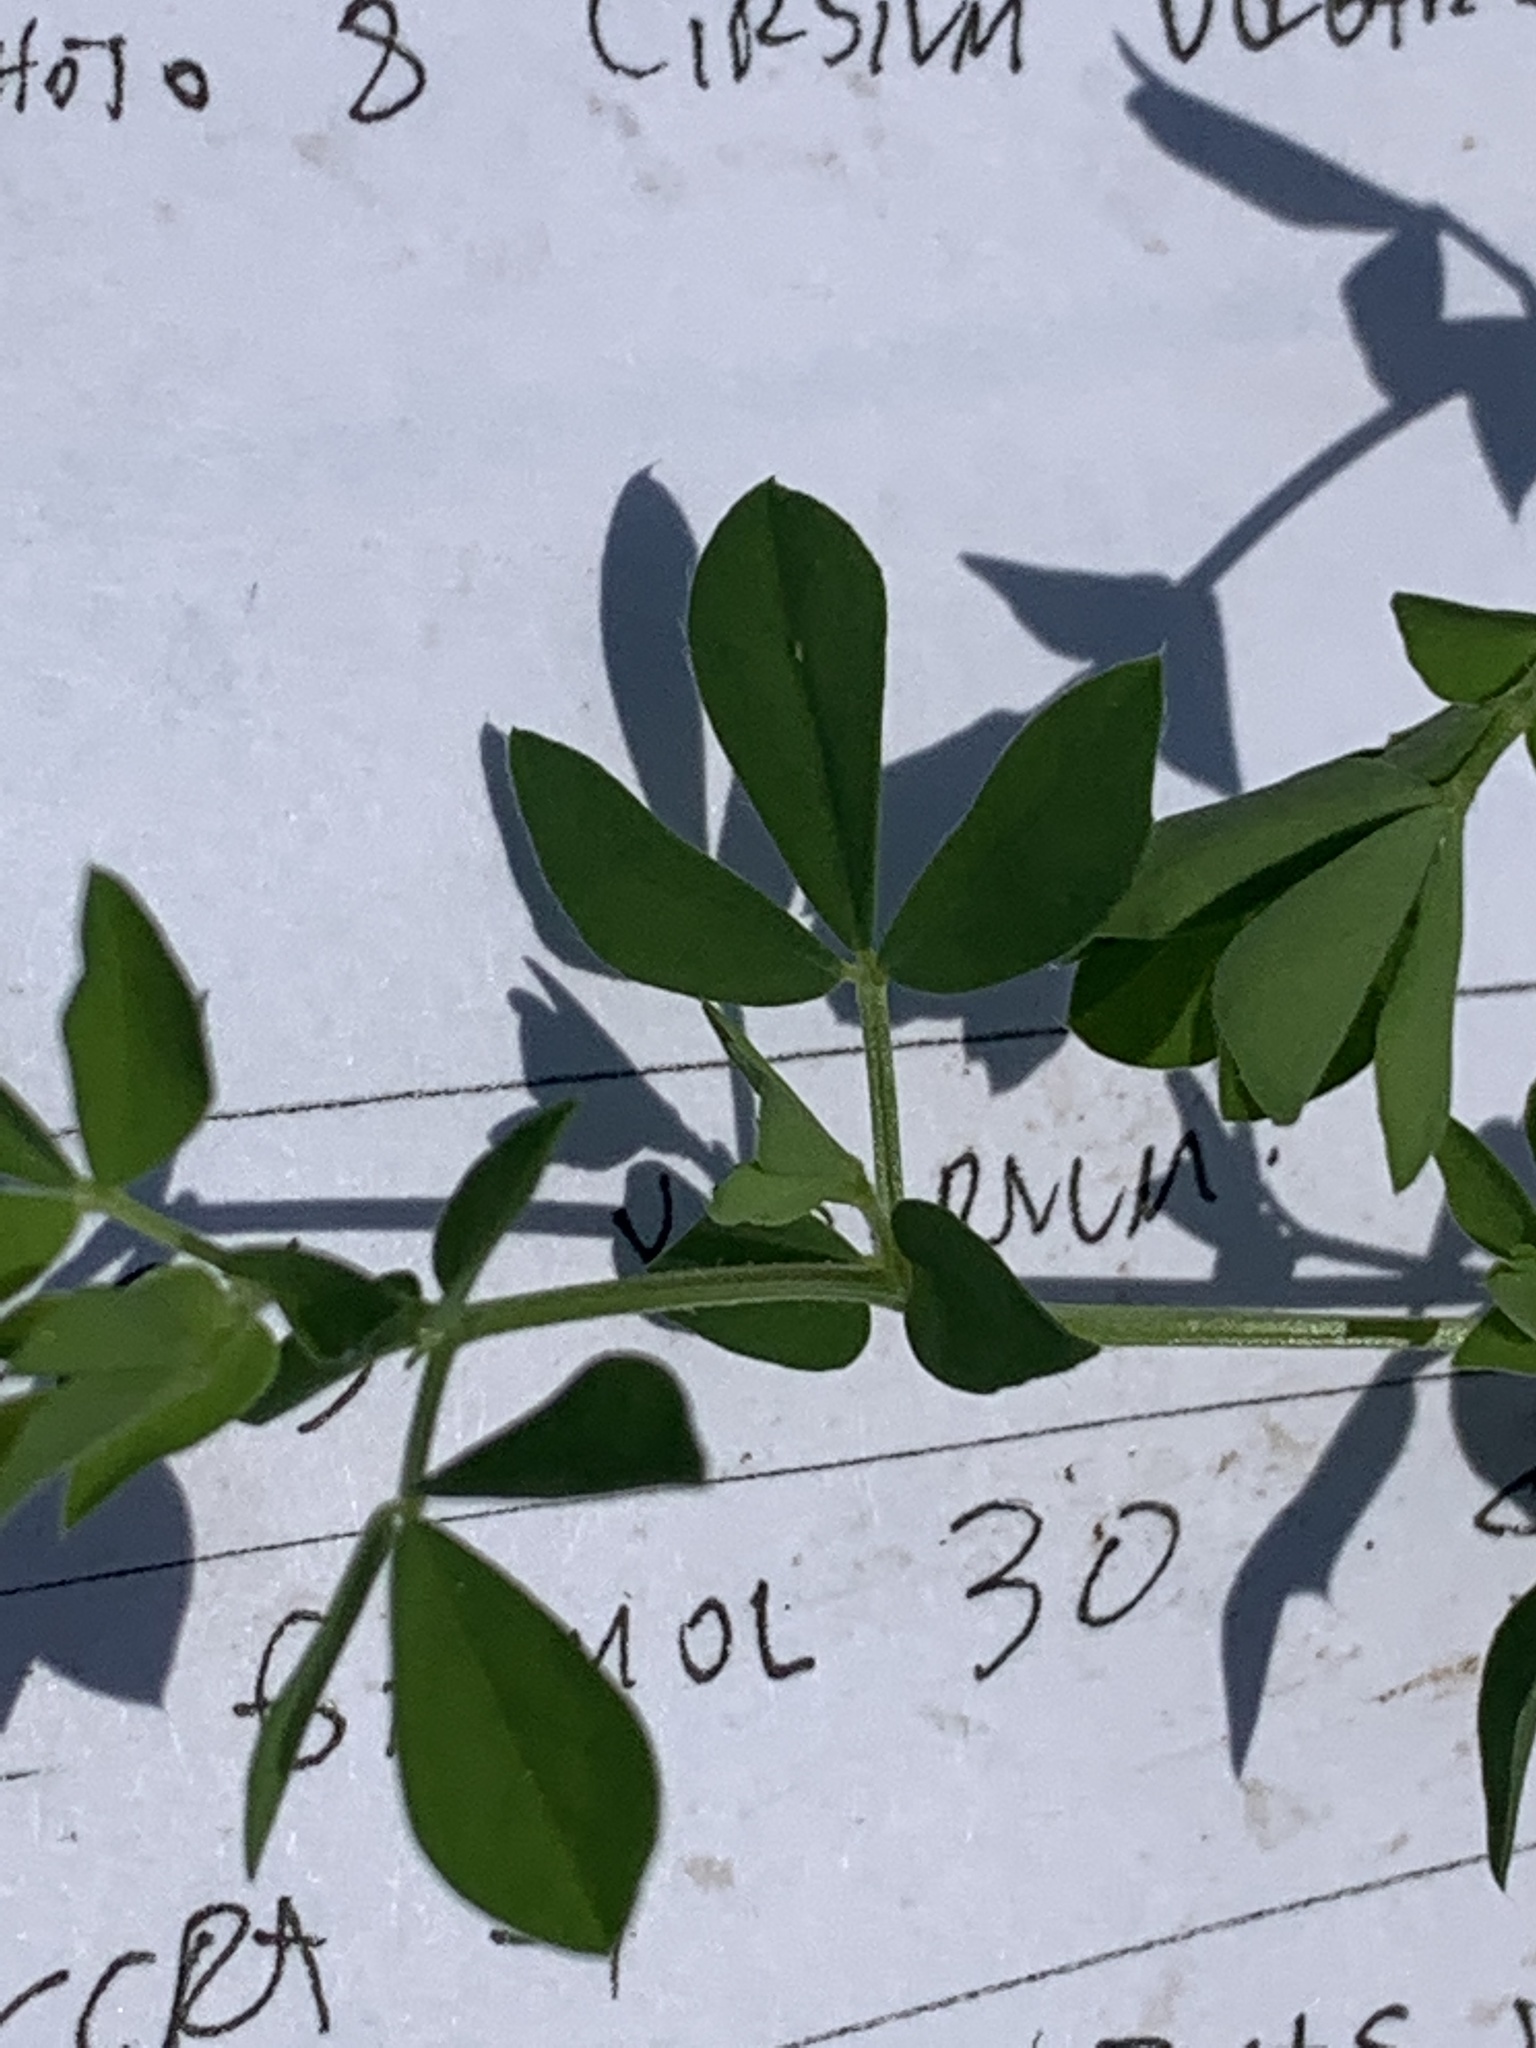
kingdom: Plantae
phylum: Tracheophyta
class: Magnoliopsida
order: Fabales
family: Fabaceae
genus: Lotus
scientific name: Lotus corniculatus
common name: Common bird's-foot-trefoil
